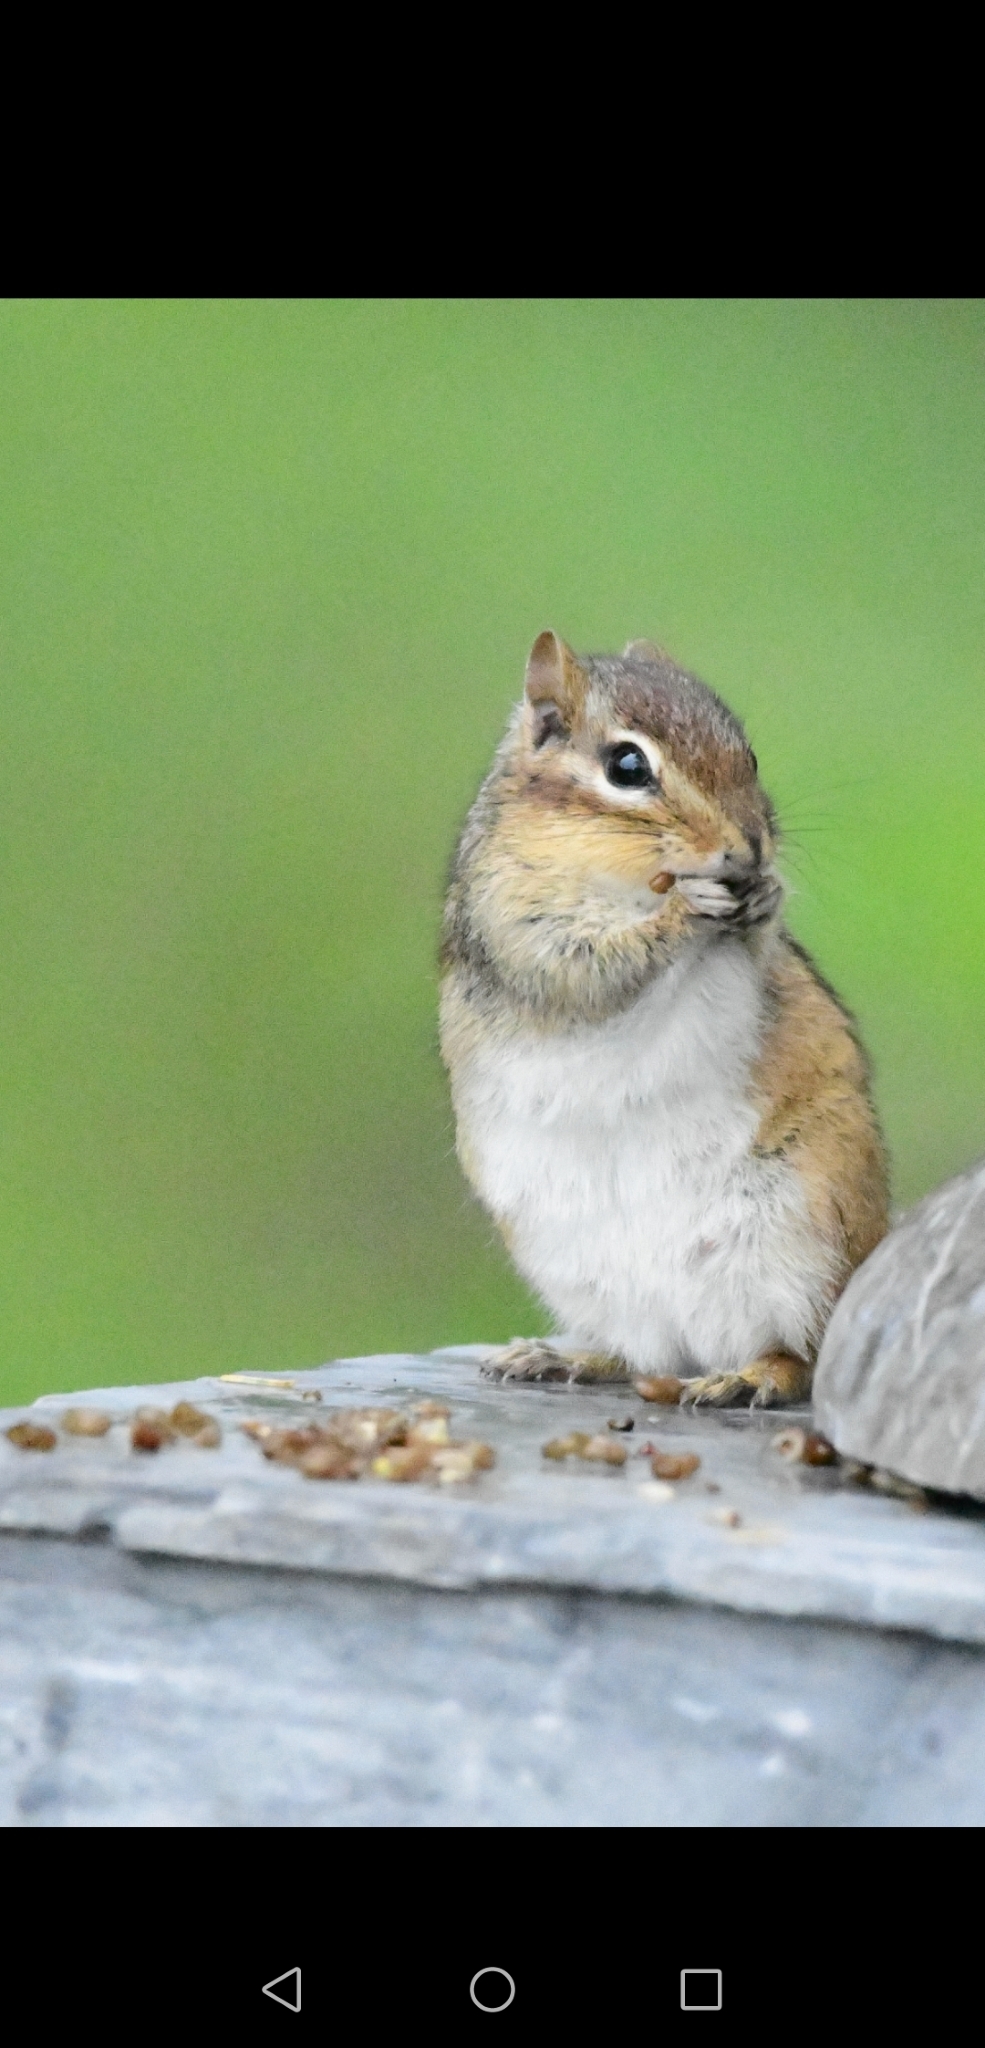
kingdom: Animalia
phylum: Chordata
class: Mammalia
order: Rodentia
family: Sciuridae
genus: Tamias
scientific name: Tamias striatus
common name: Eastern chipmunk
